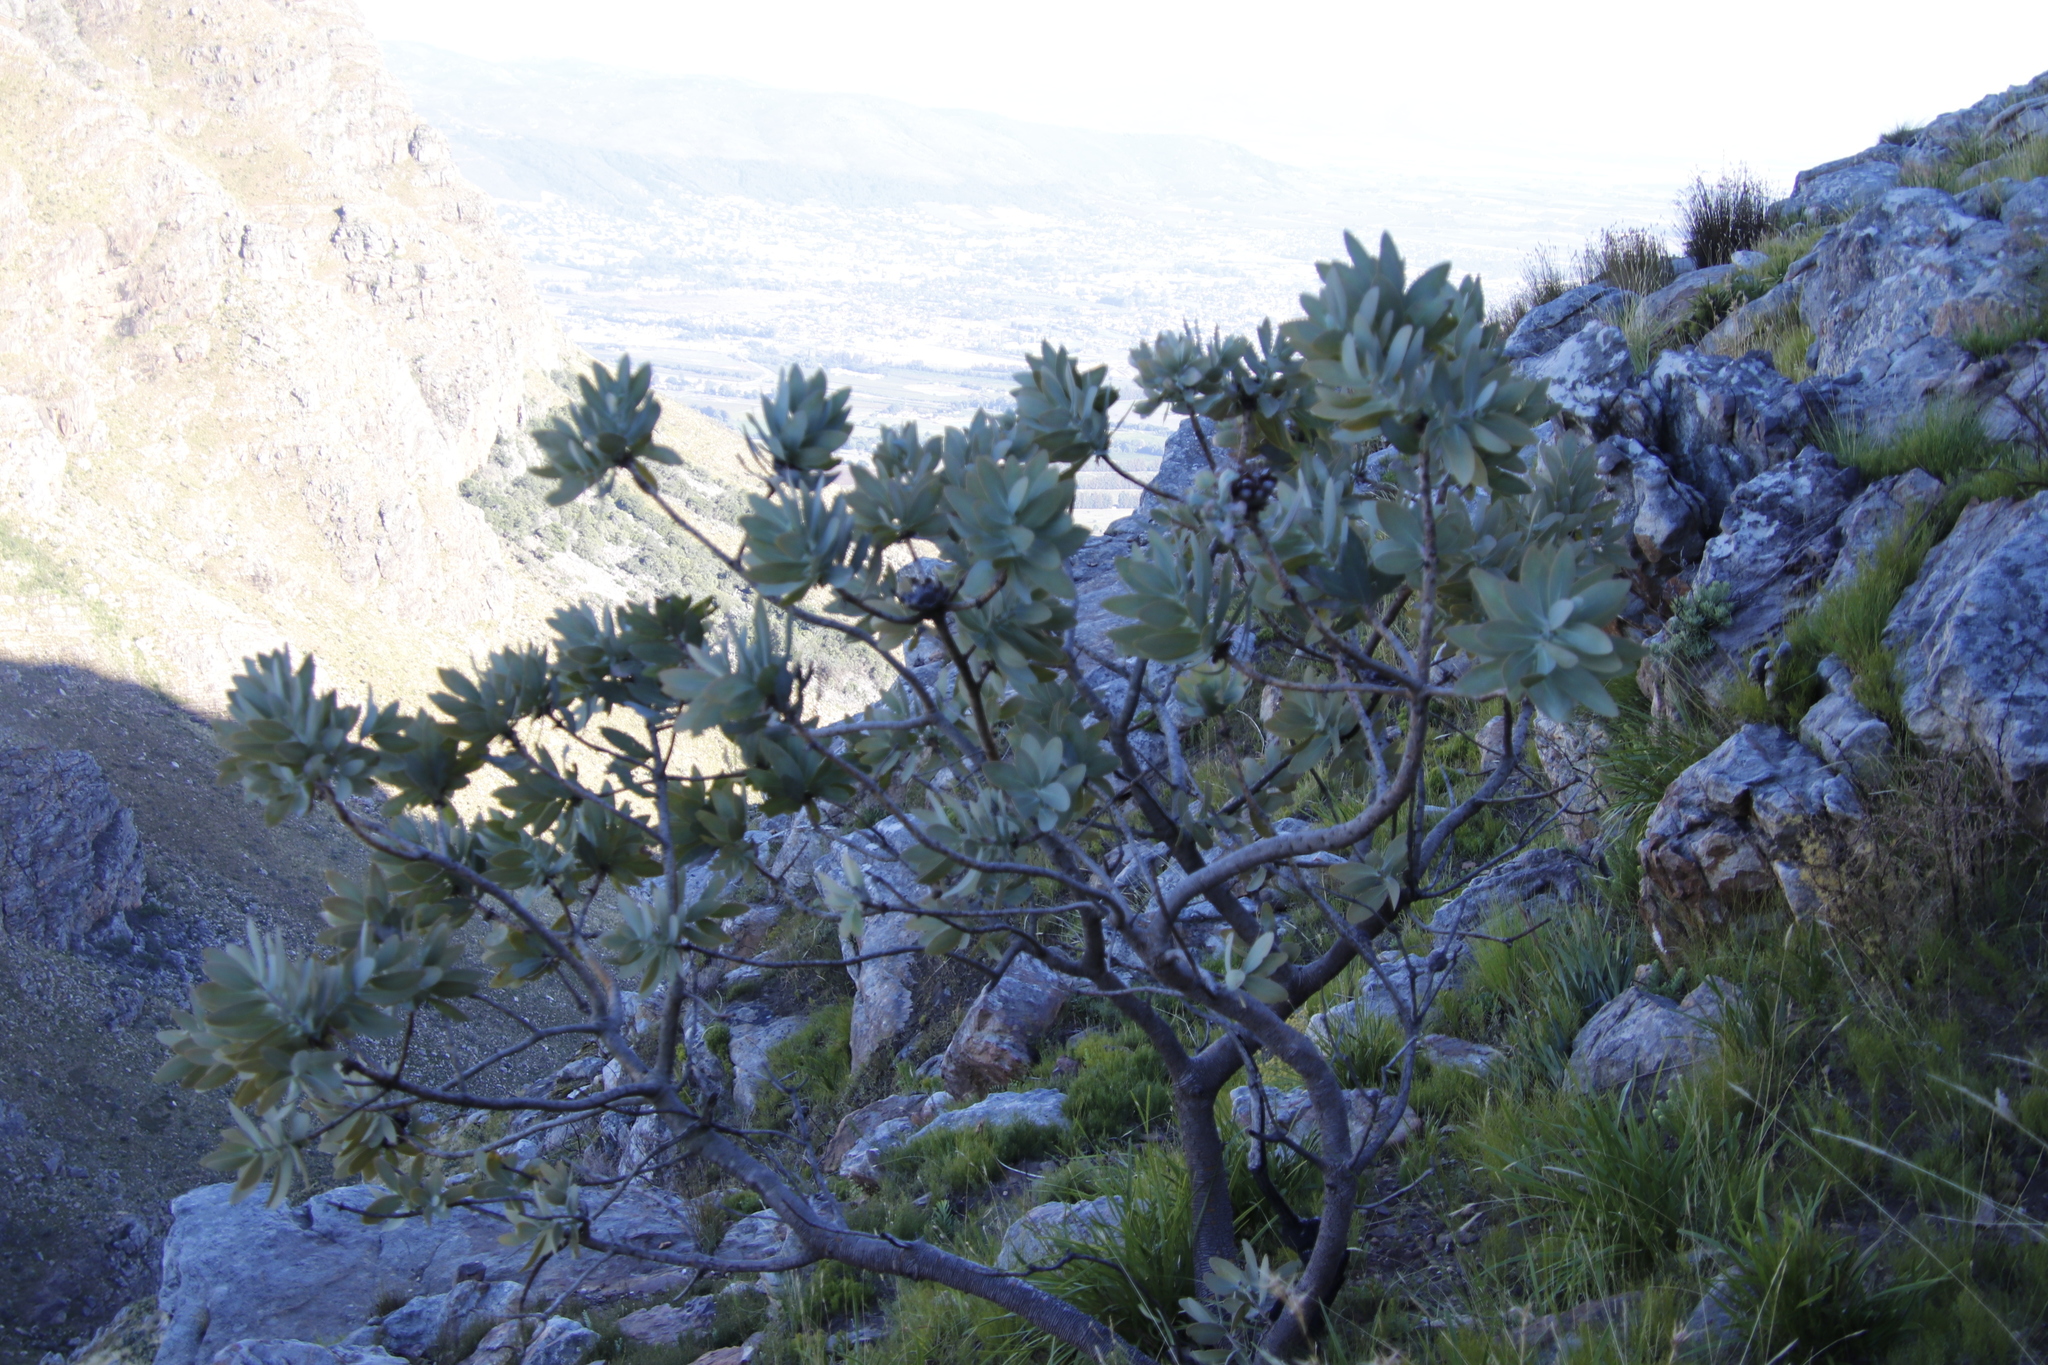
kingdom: Plantae
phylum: Tracheophyta
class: Magnoliopsida
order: Proteales
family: Proteaceae
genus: Protea
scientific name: Protea nitida
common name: Tree protea
